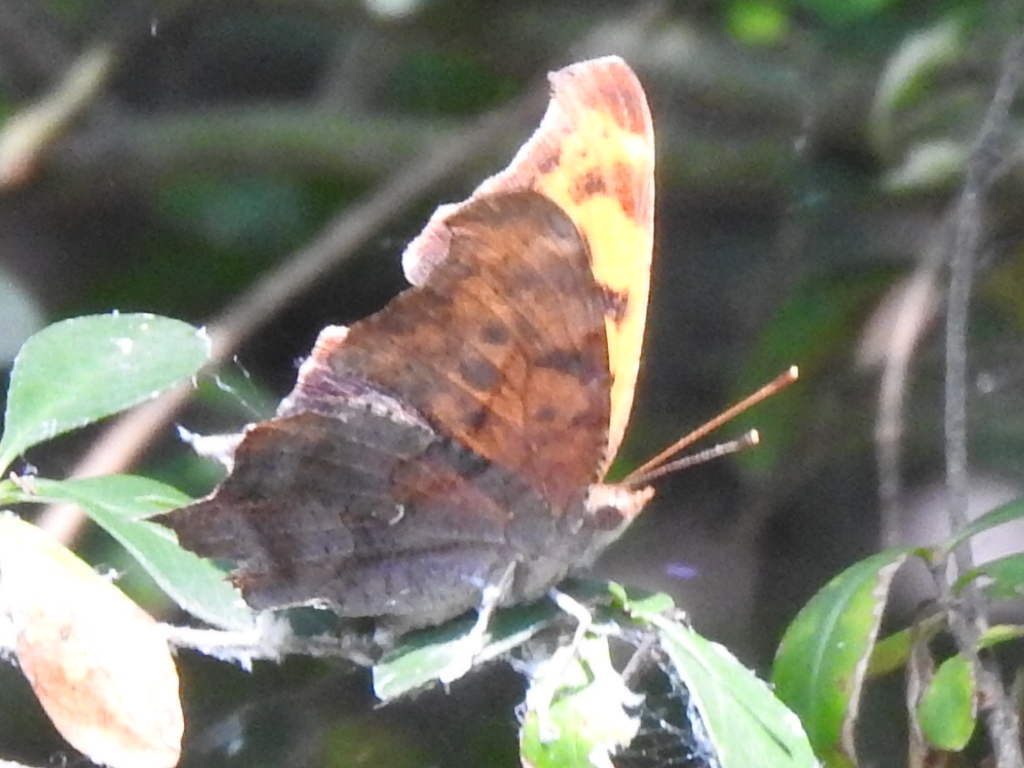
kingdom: Animalia
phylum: Arthropoda
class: Insecta
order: Lepidoptera
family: Nymphalidae
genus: Polygonia
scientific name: Polygonia interrogationis
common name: Question mark
